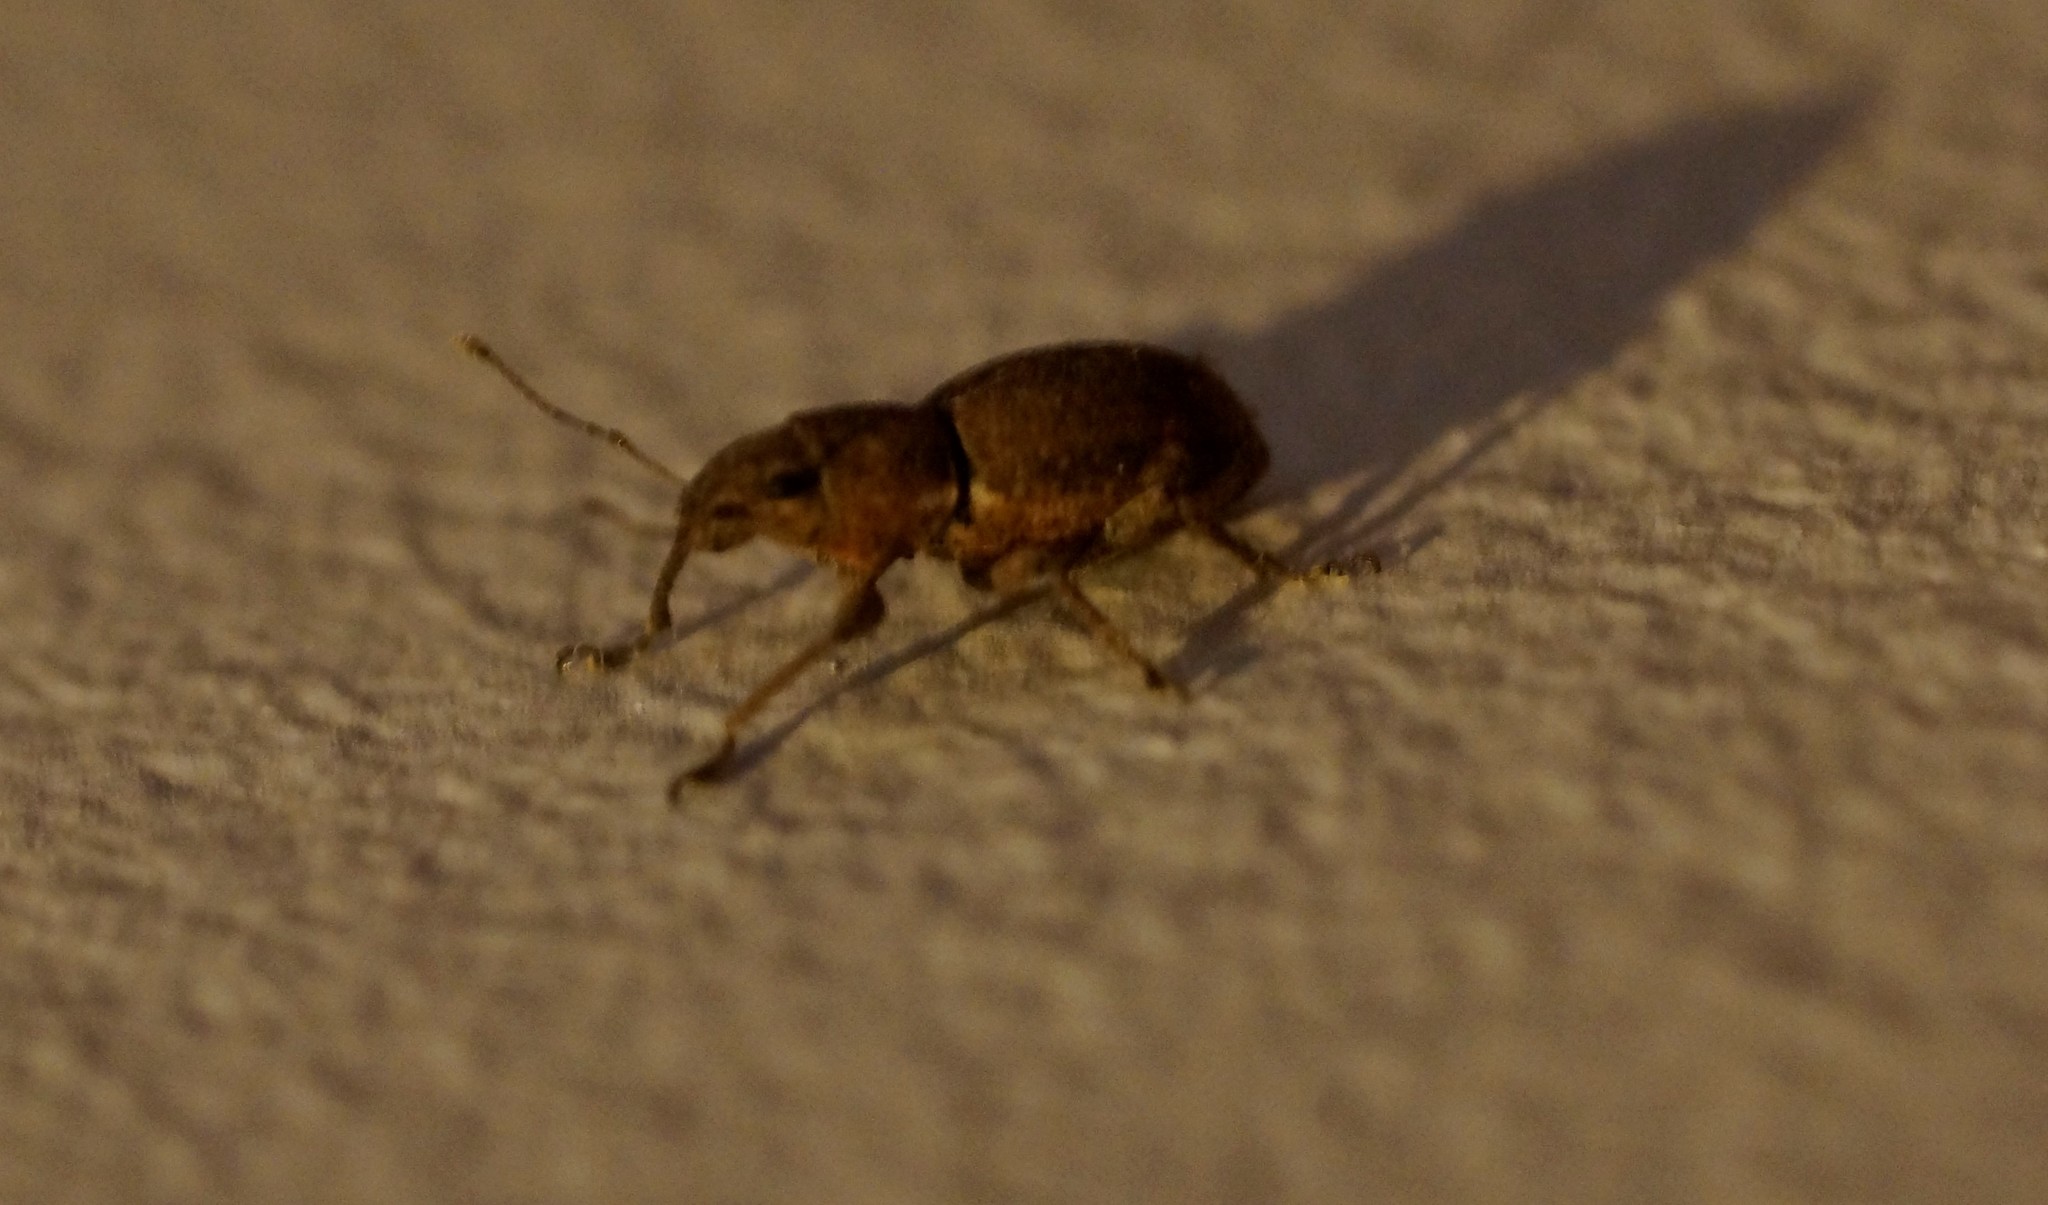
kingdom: Animalia
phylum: Arthropoda
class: Insecta
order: Coleoptera
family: Curculionidae
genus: Naupactus
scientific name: Naupactus cervinus
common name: Fuller rose beetle
